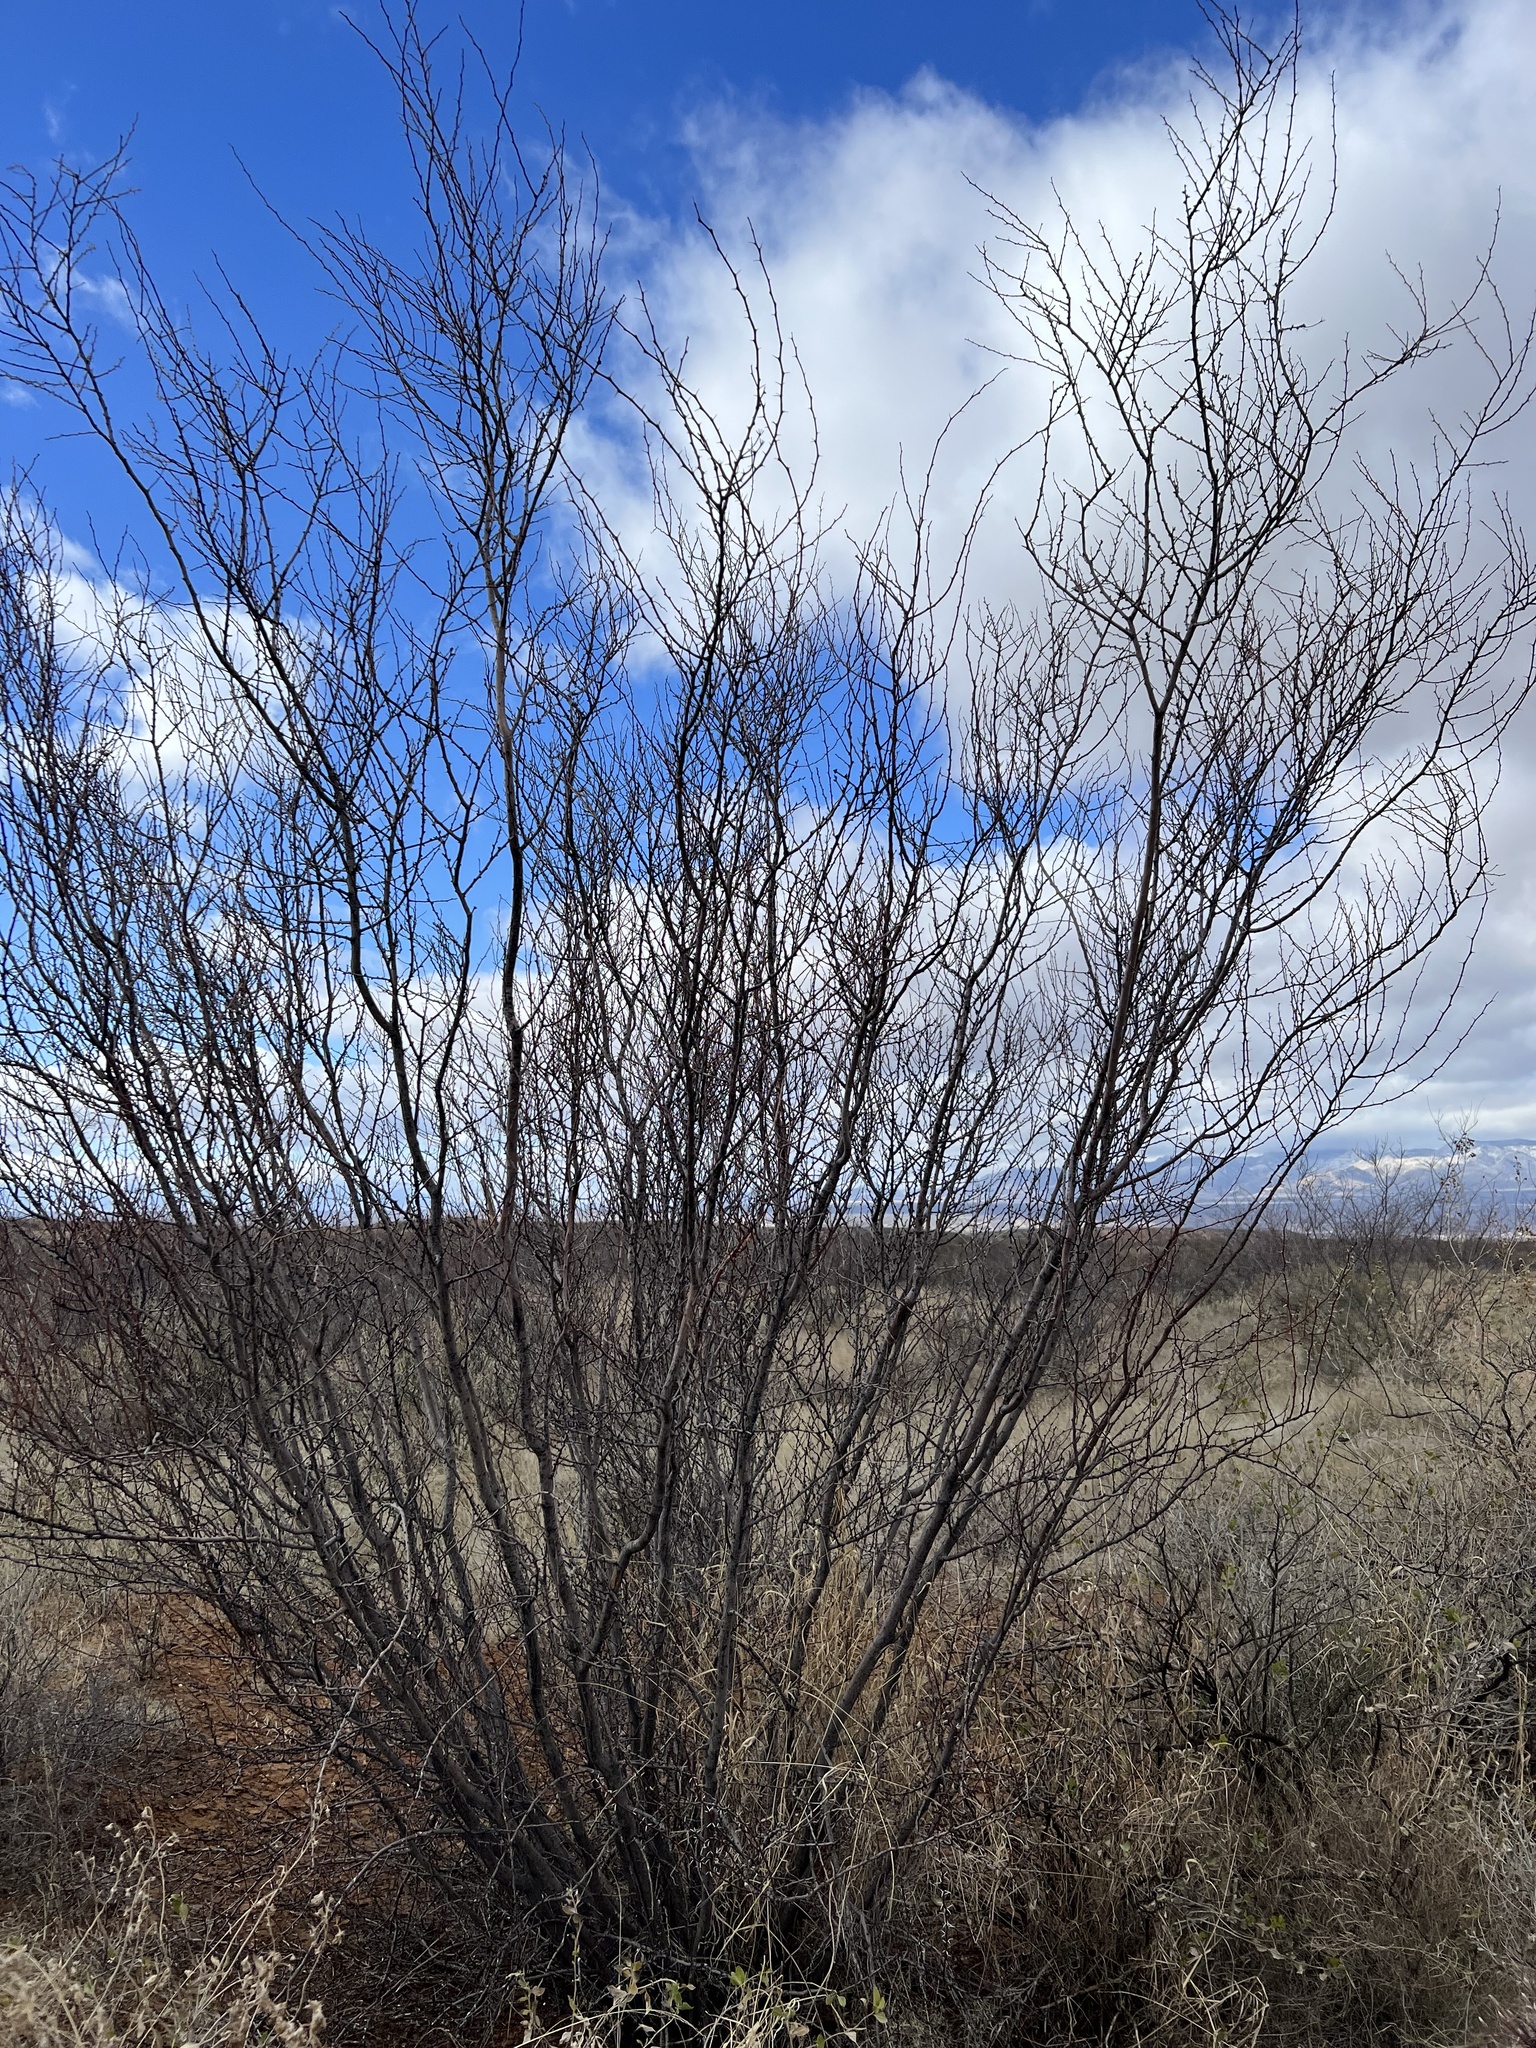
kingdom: Plantae
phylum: Tracheophyta
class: Magnoliopsida
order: Fabales
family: Fabaceae
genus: Vachellia
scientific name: Vachellia constricta
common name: Mescat acacia
